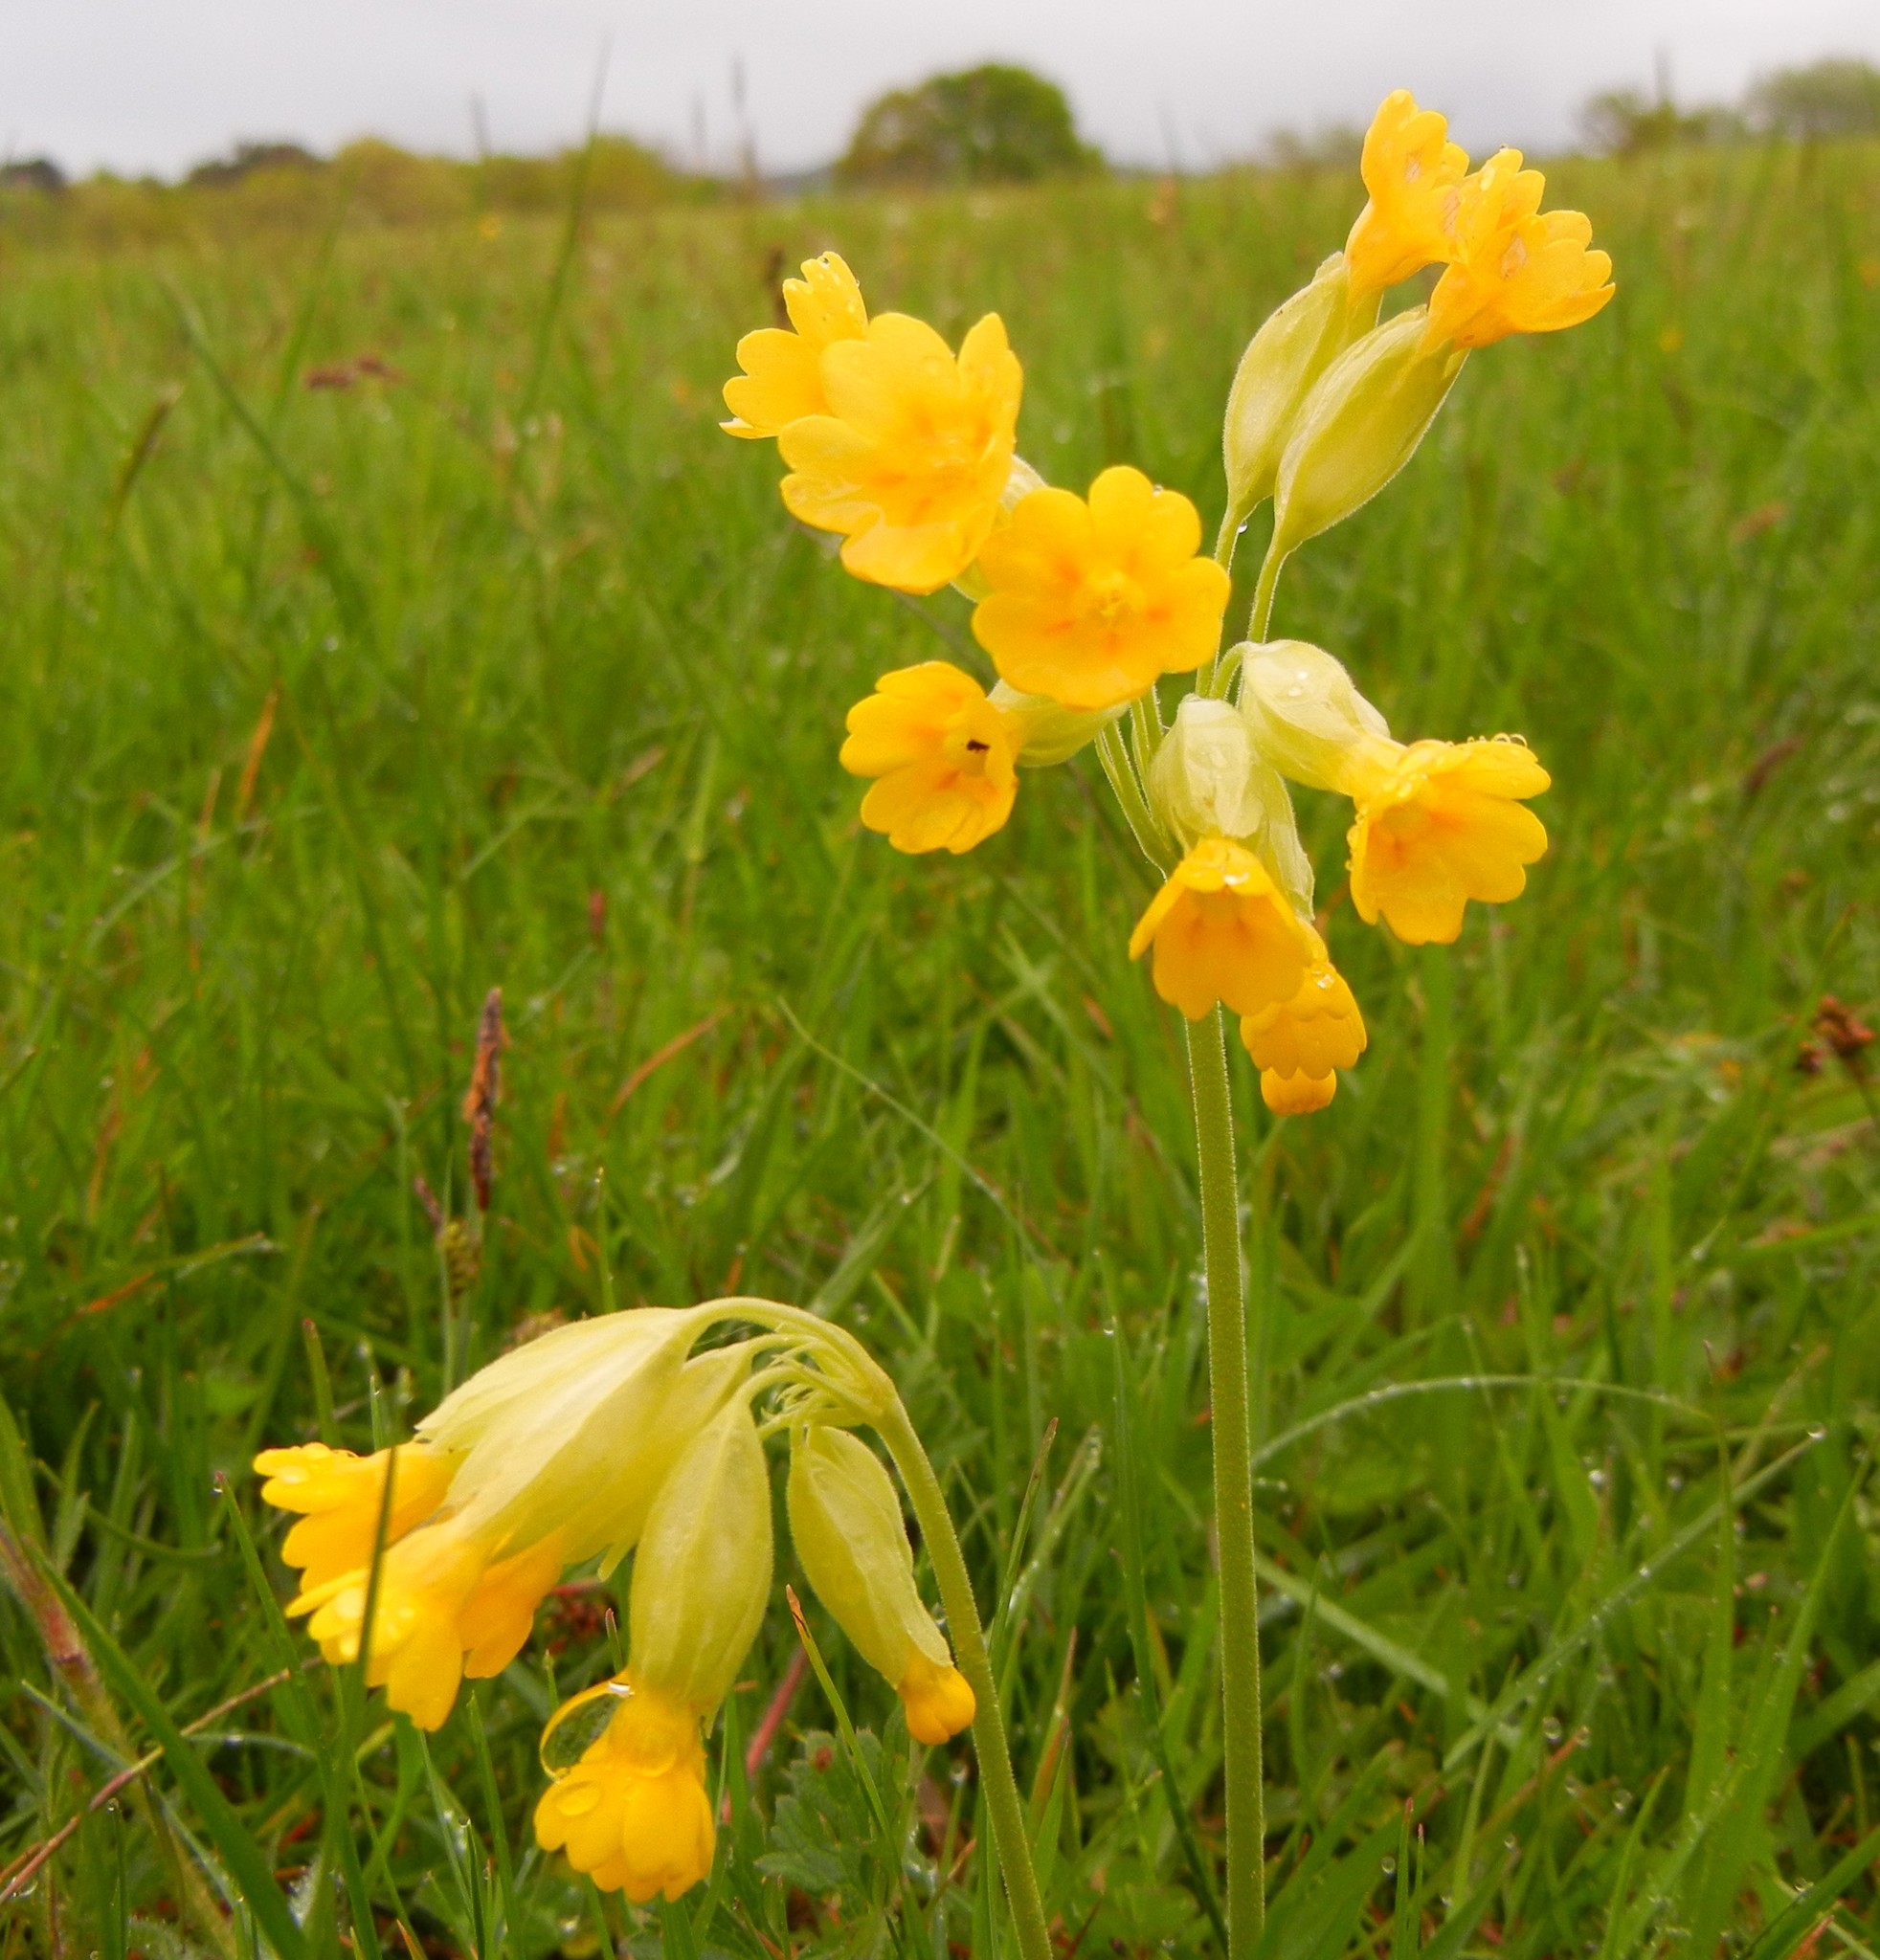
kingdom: Plantae
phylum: Tracheophyta
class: Magnoliopsida
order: Ericales
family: Primulaceae
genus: Primula
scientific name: Primula veris
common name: Cowslip
